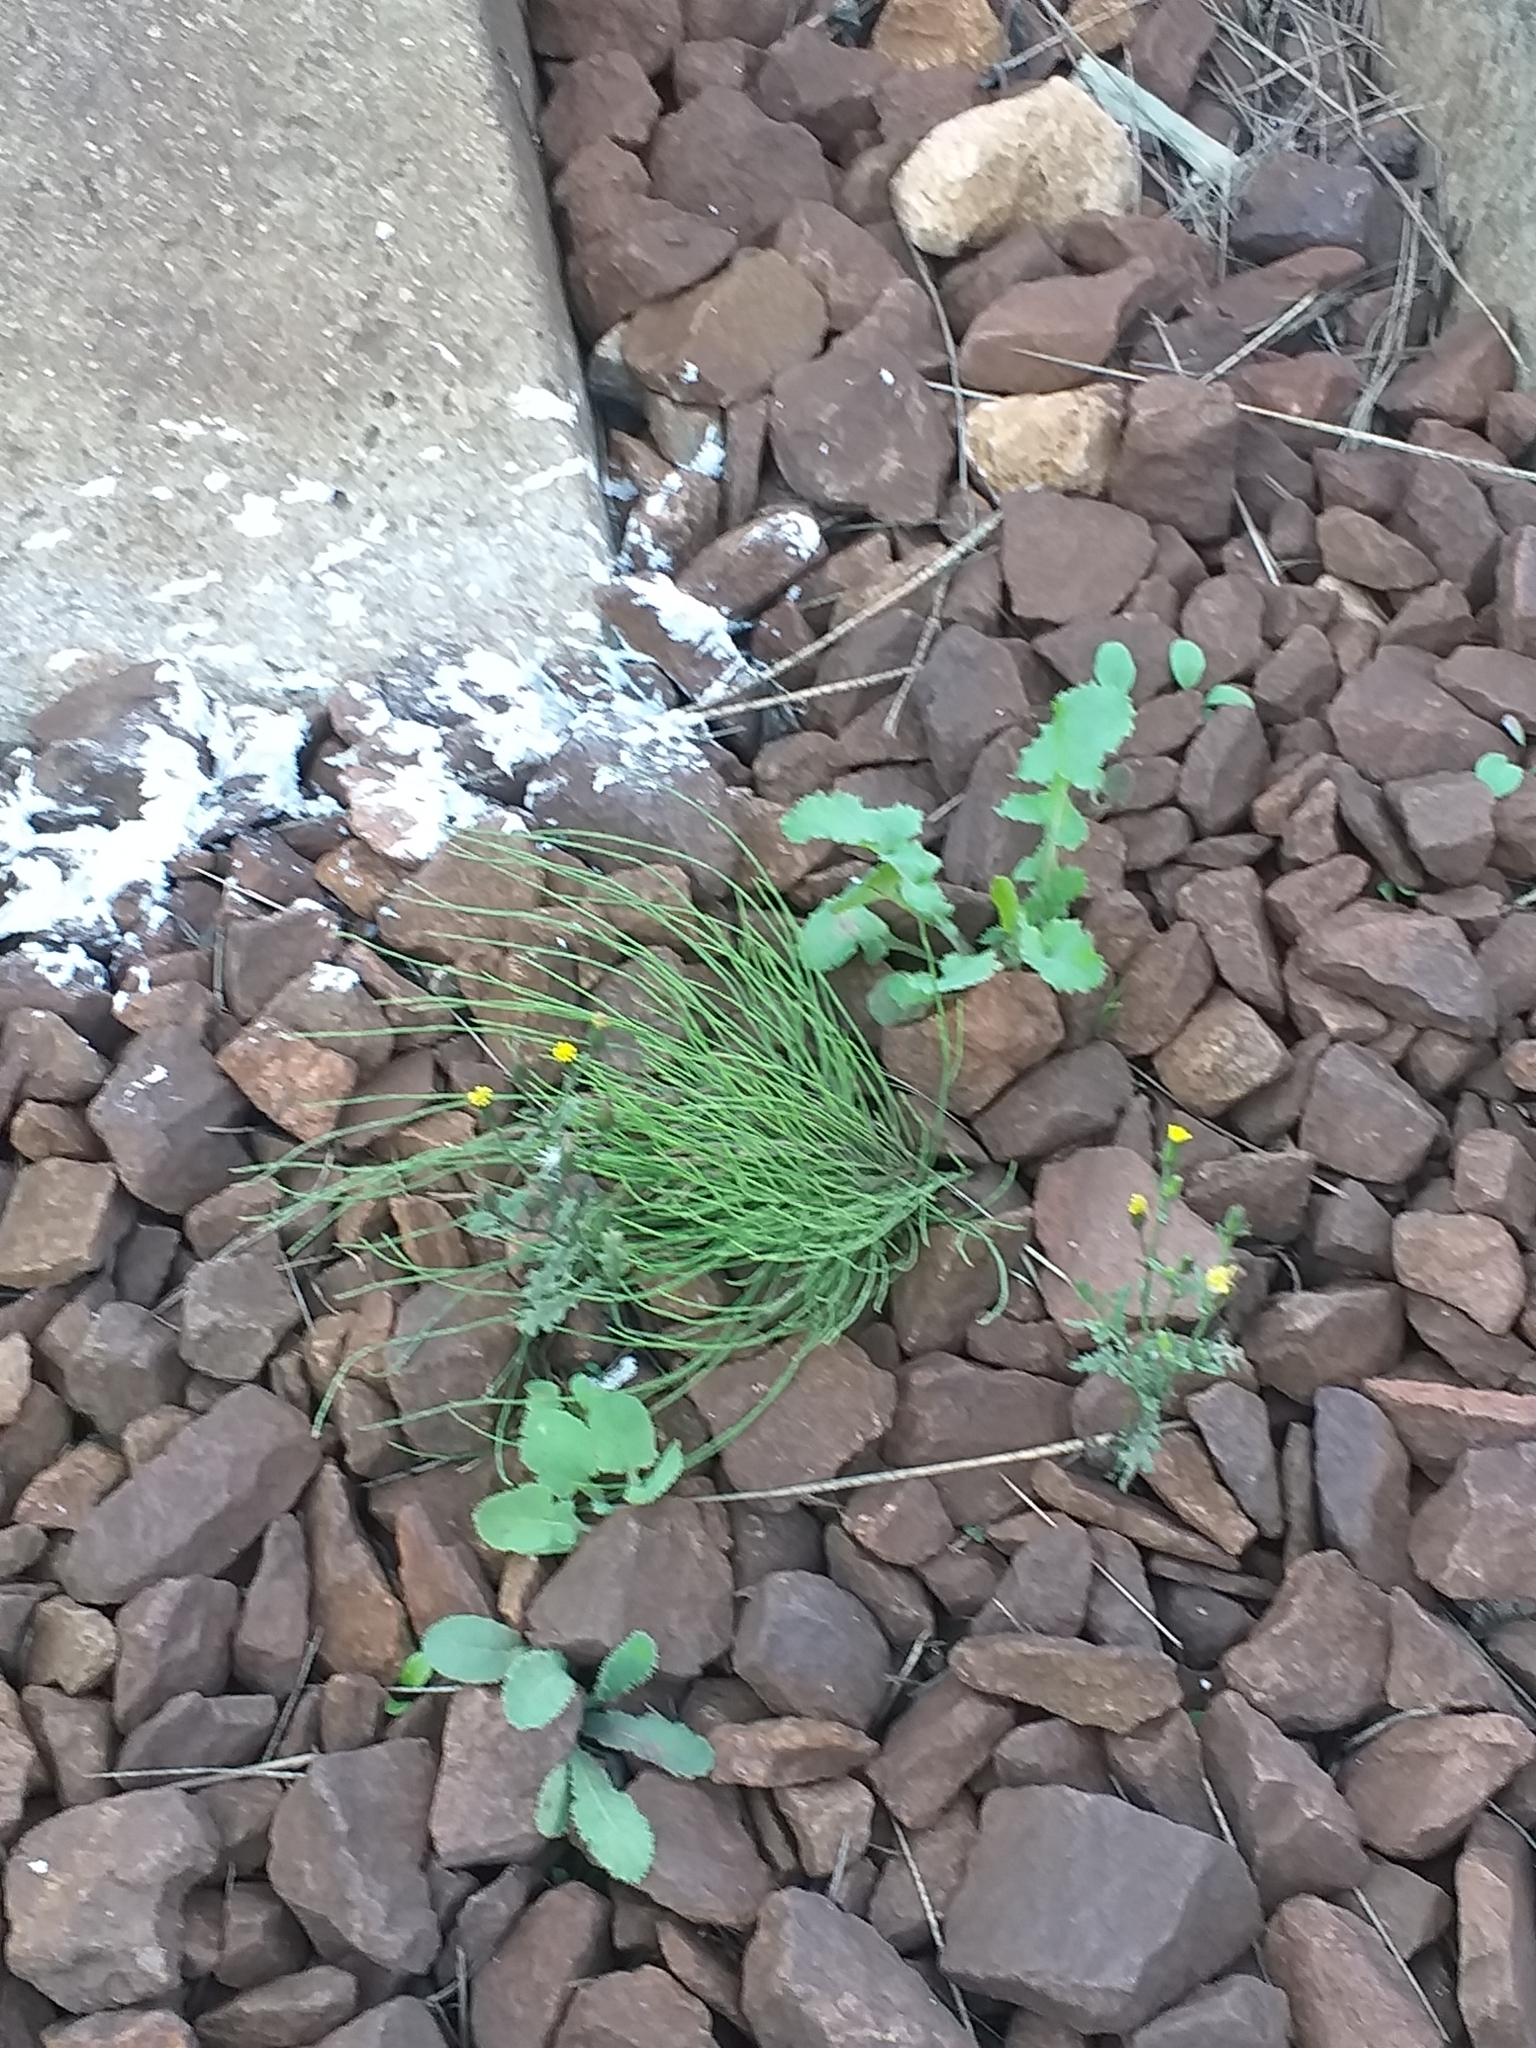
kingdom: Plantae
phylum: Tracheophyta
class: Polypodiopsida
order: Equisetales
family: Equisetaceae
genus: Equisetum
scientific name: Equisetum arvense
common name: Field horsetail
